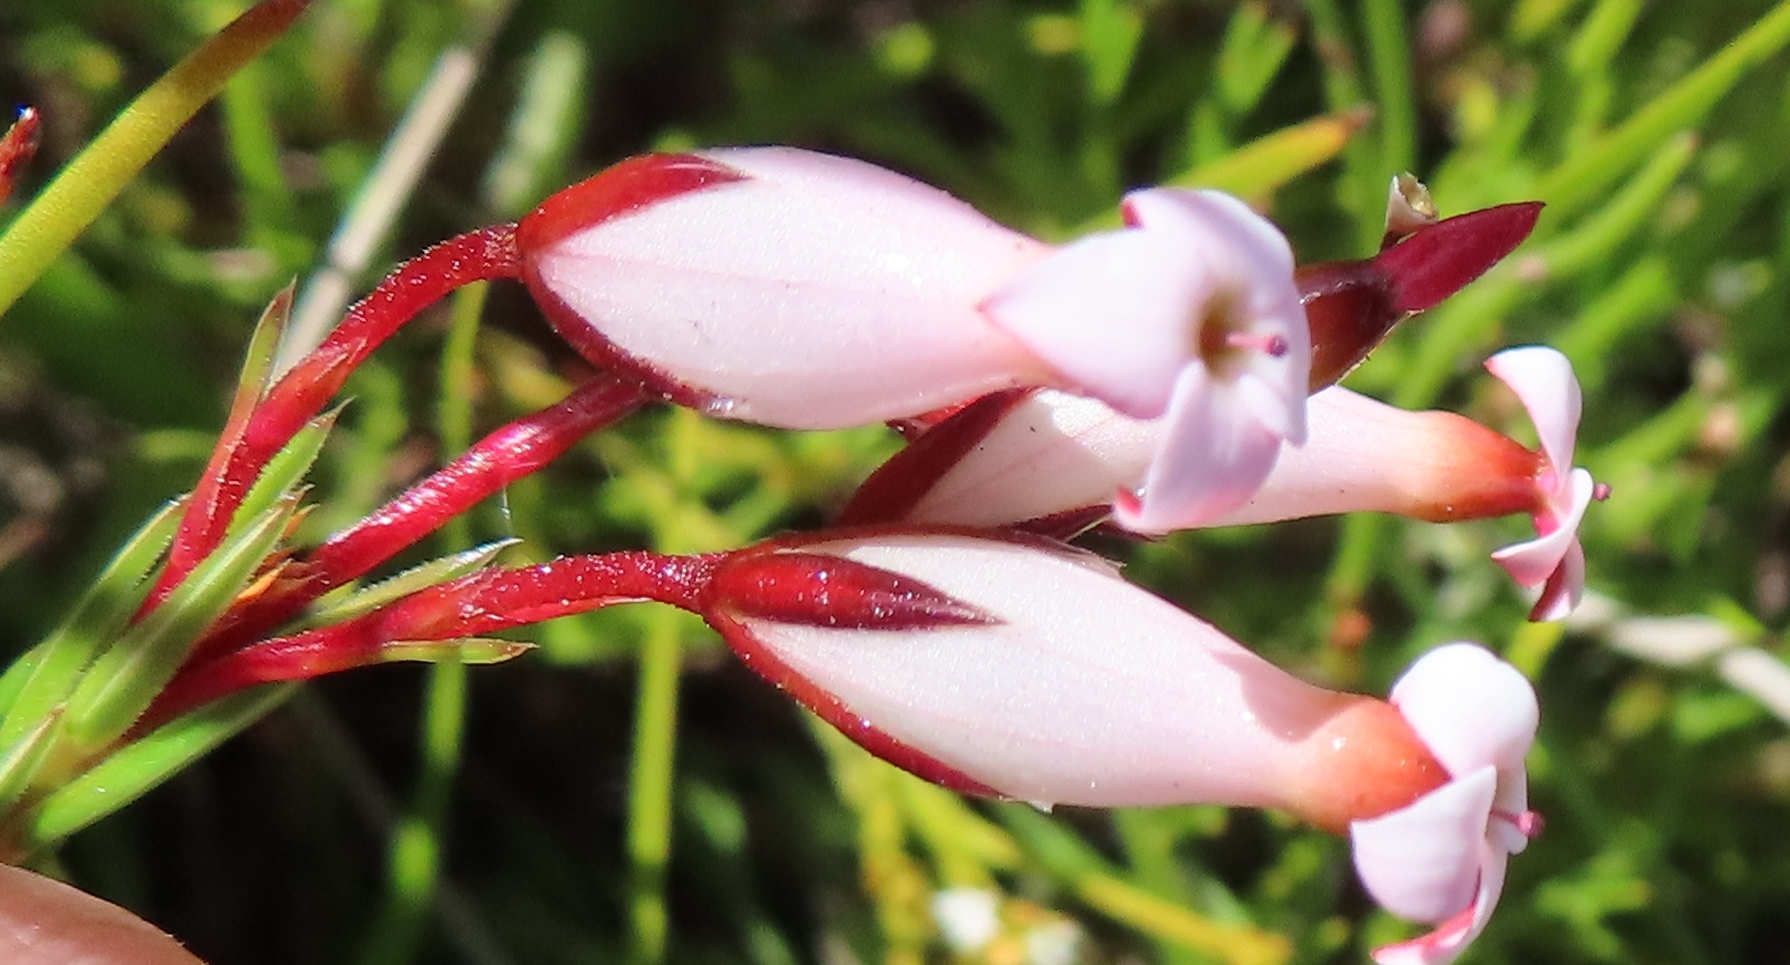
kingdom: Plantae
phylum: Tracheophyta
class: Magnoliopsida
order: Ericales
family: Ericaceae
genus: Erica
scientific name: Erica irbyana
